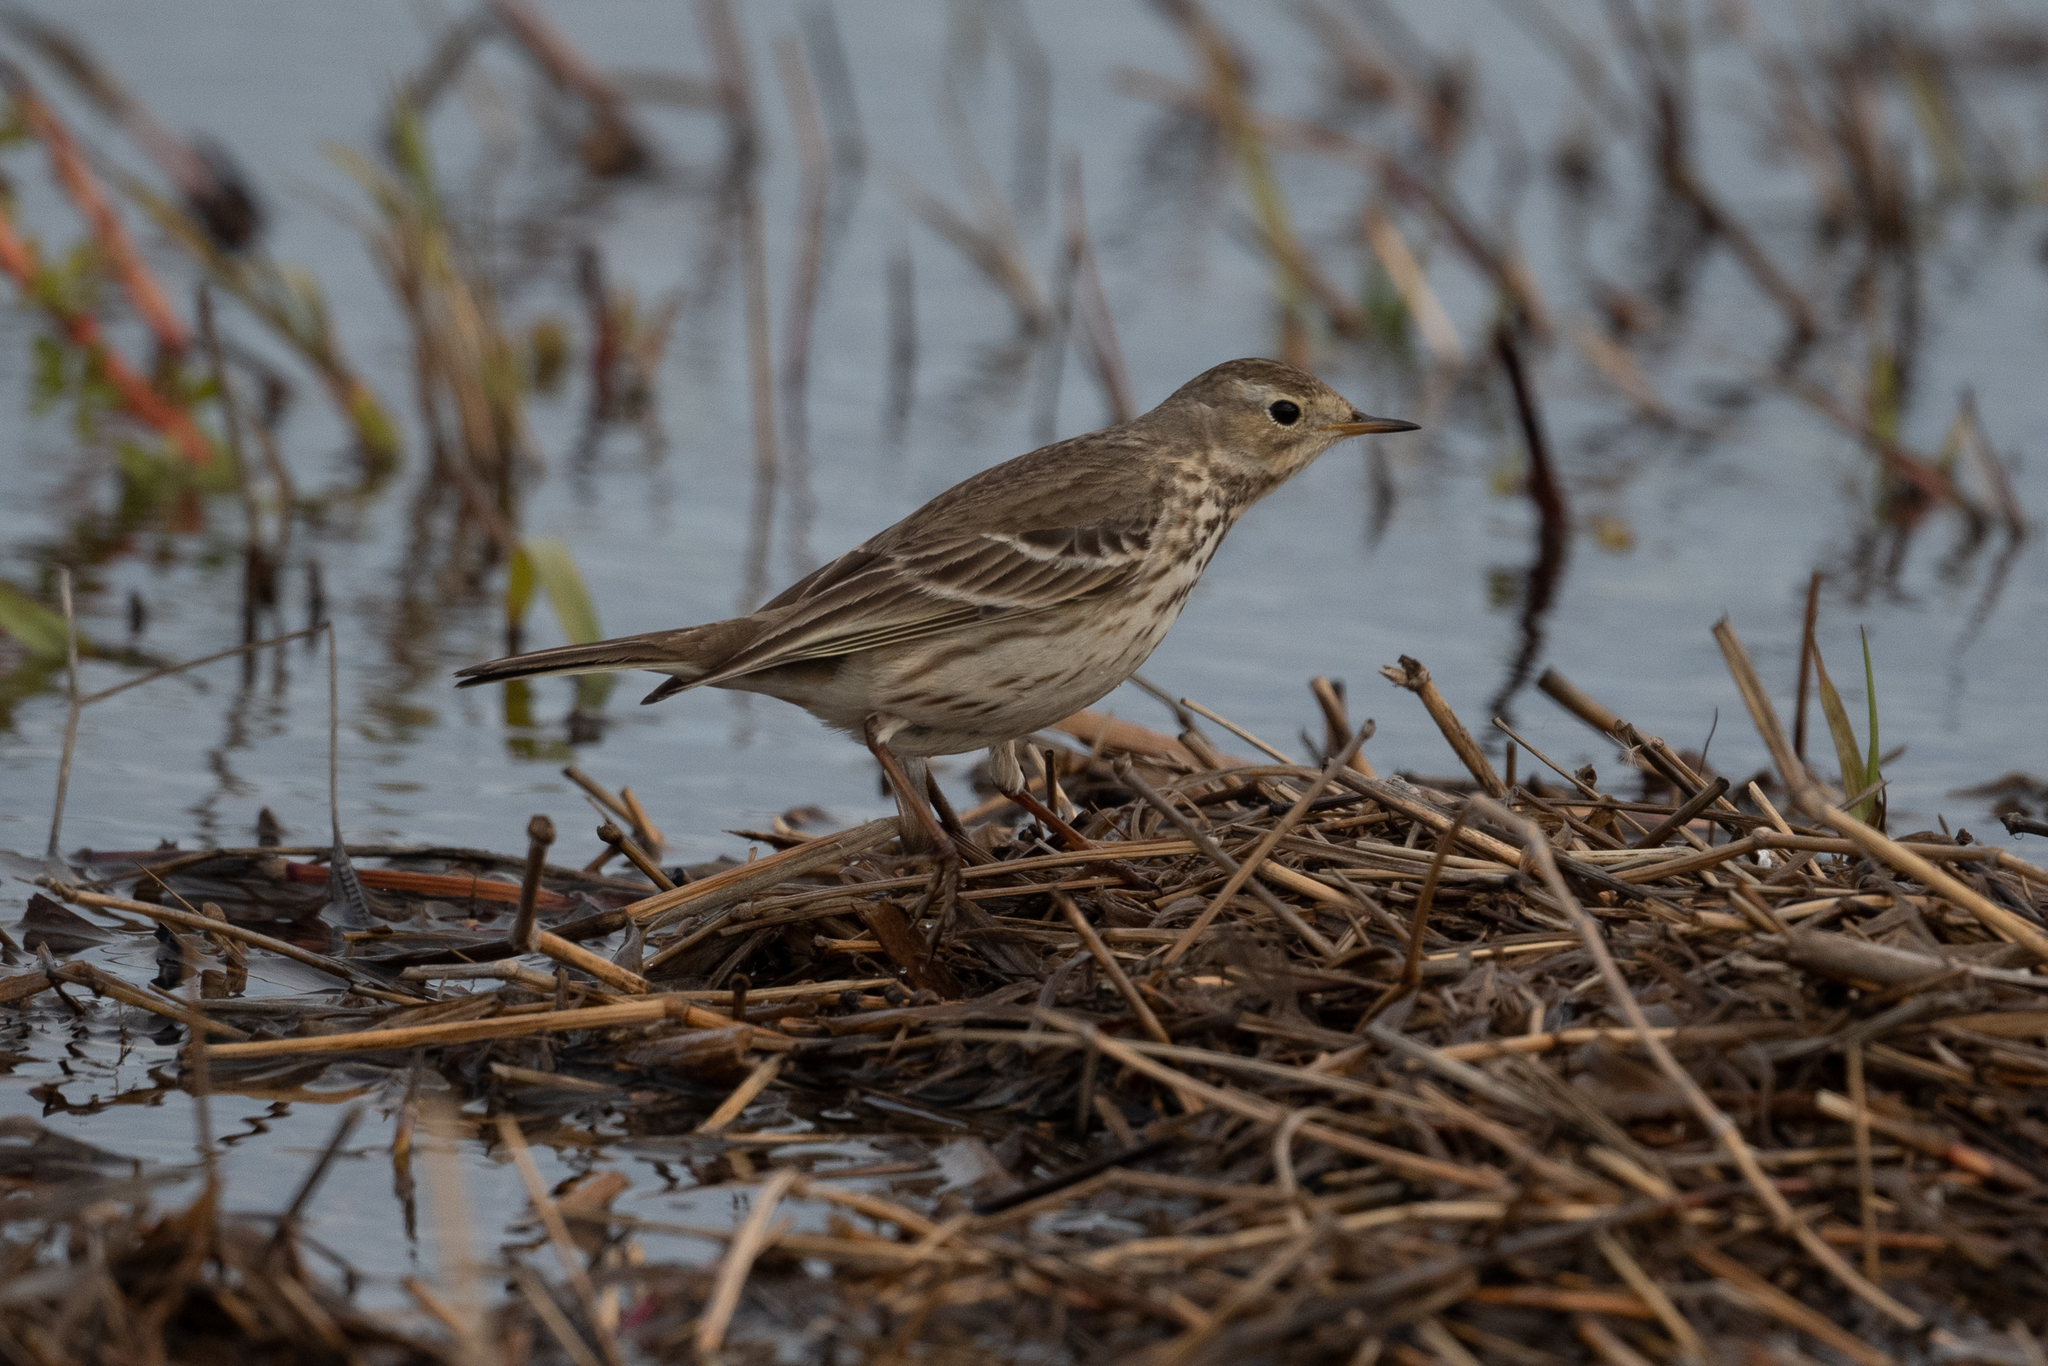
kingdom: Animalia
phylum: Chordata
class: Aves
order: Passeriformes
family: Motacillidae
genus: Anthus
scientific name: Anthus rubescens
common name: Buff-bellied pipit
